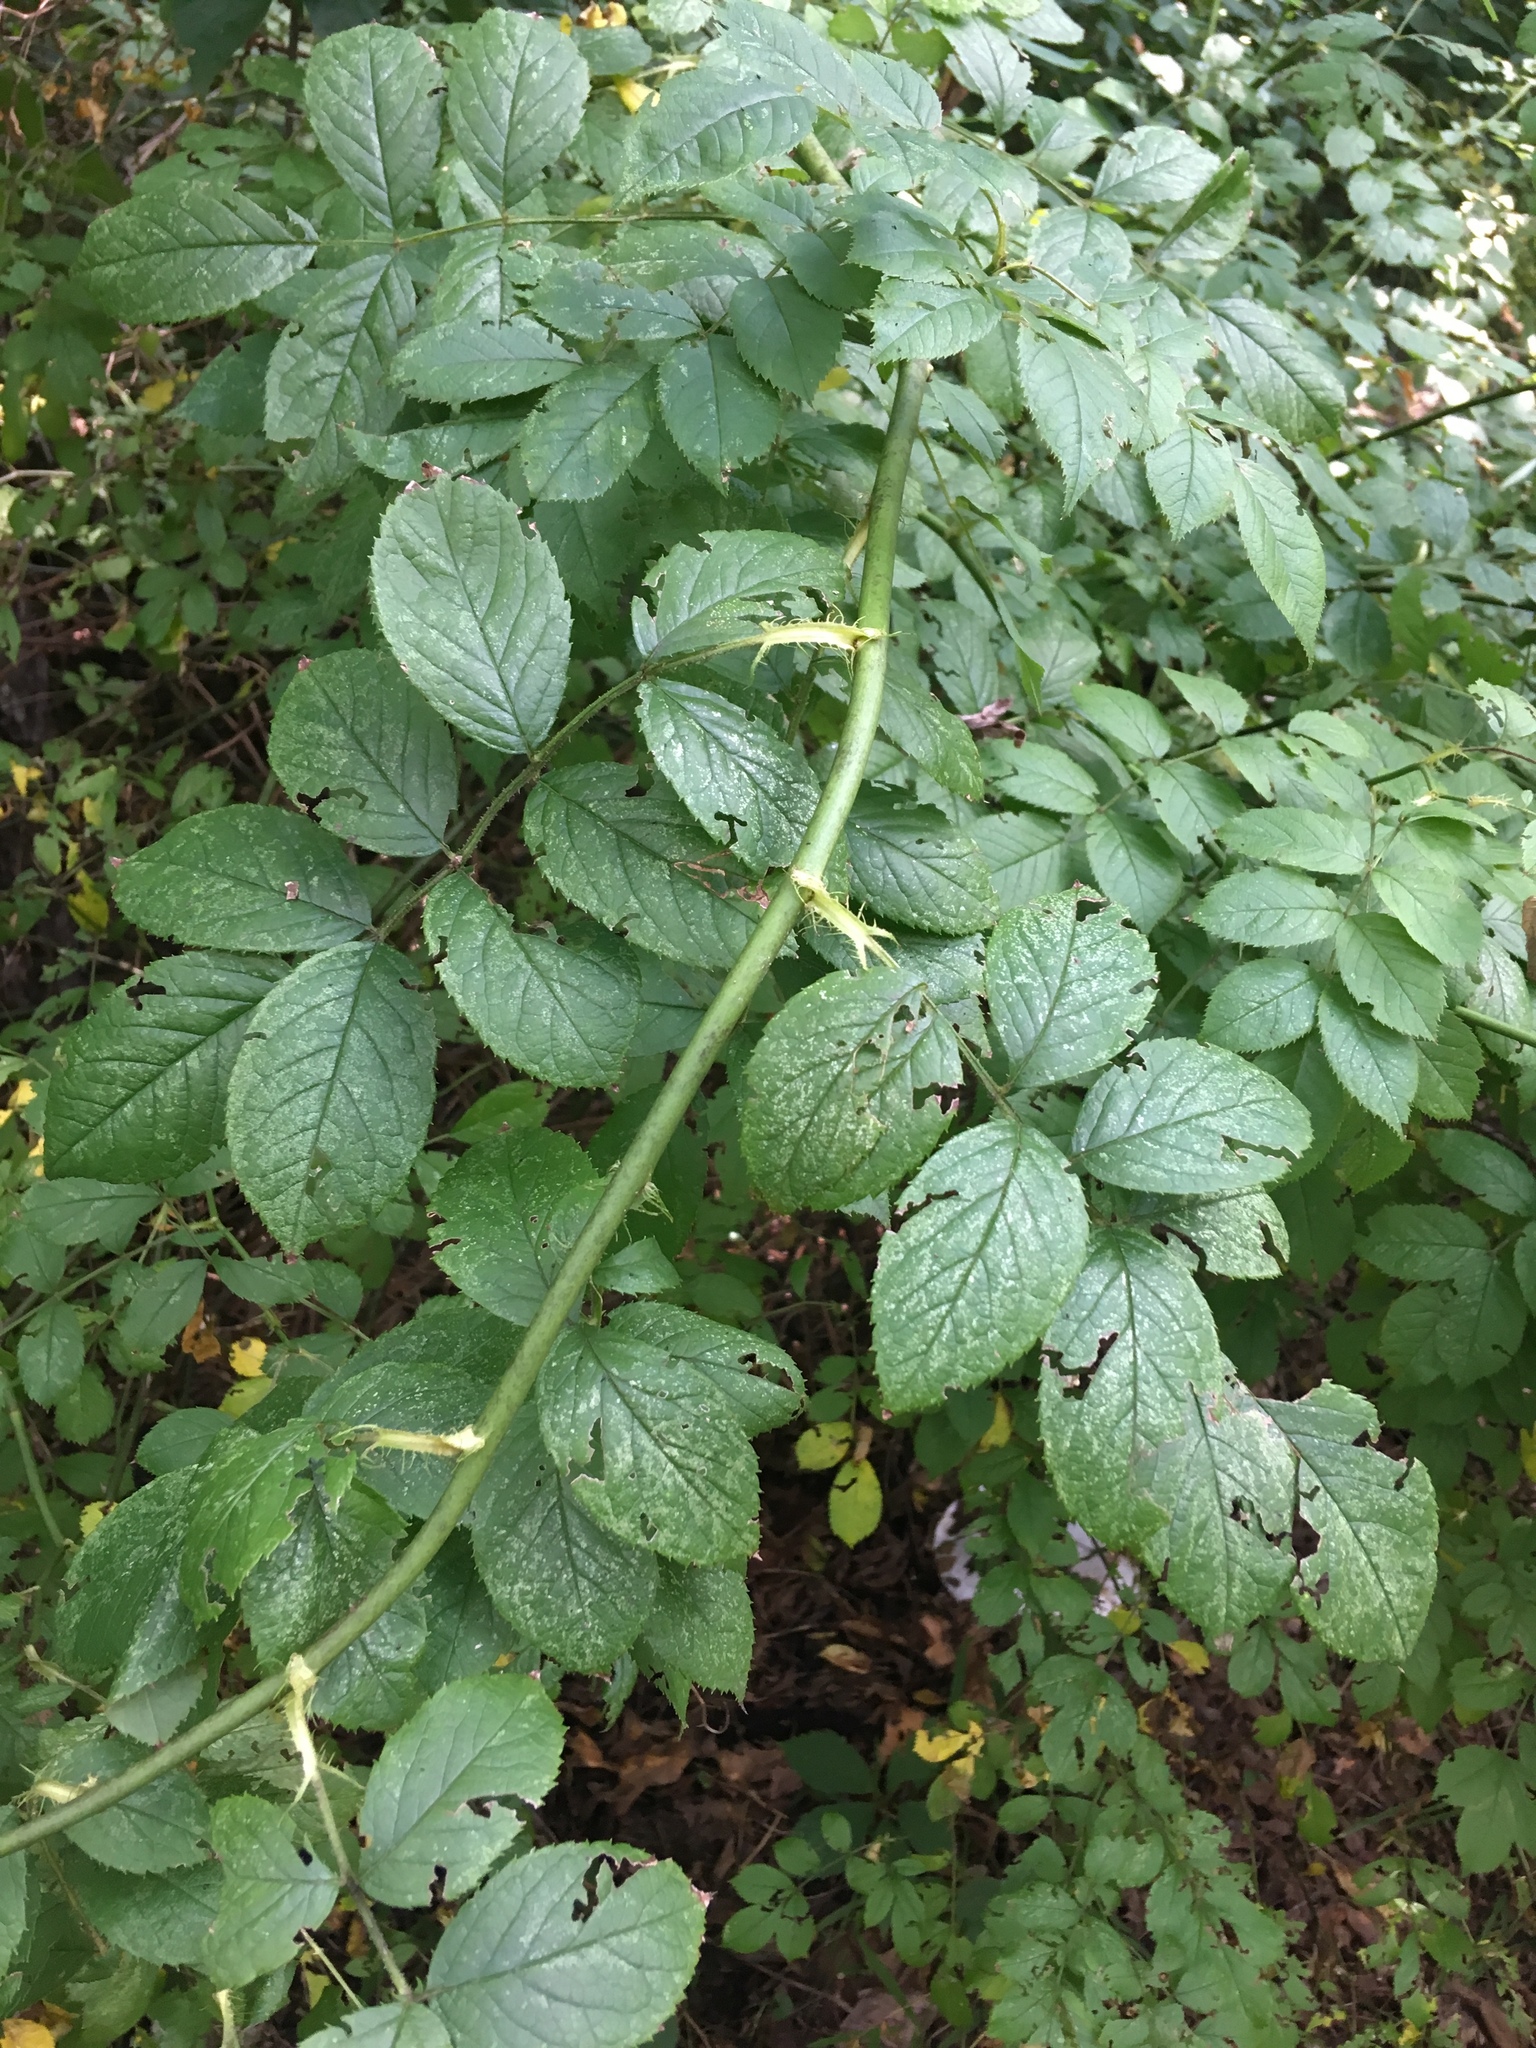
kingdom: Plantae
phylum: Tracheophyta
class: Magnoliopsida
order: Rosales
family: Rosaceae
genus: Rosa
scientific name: Rosa multiflora
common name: Multiflora rose
